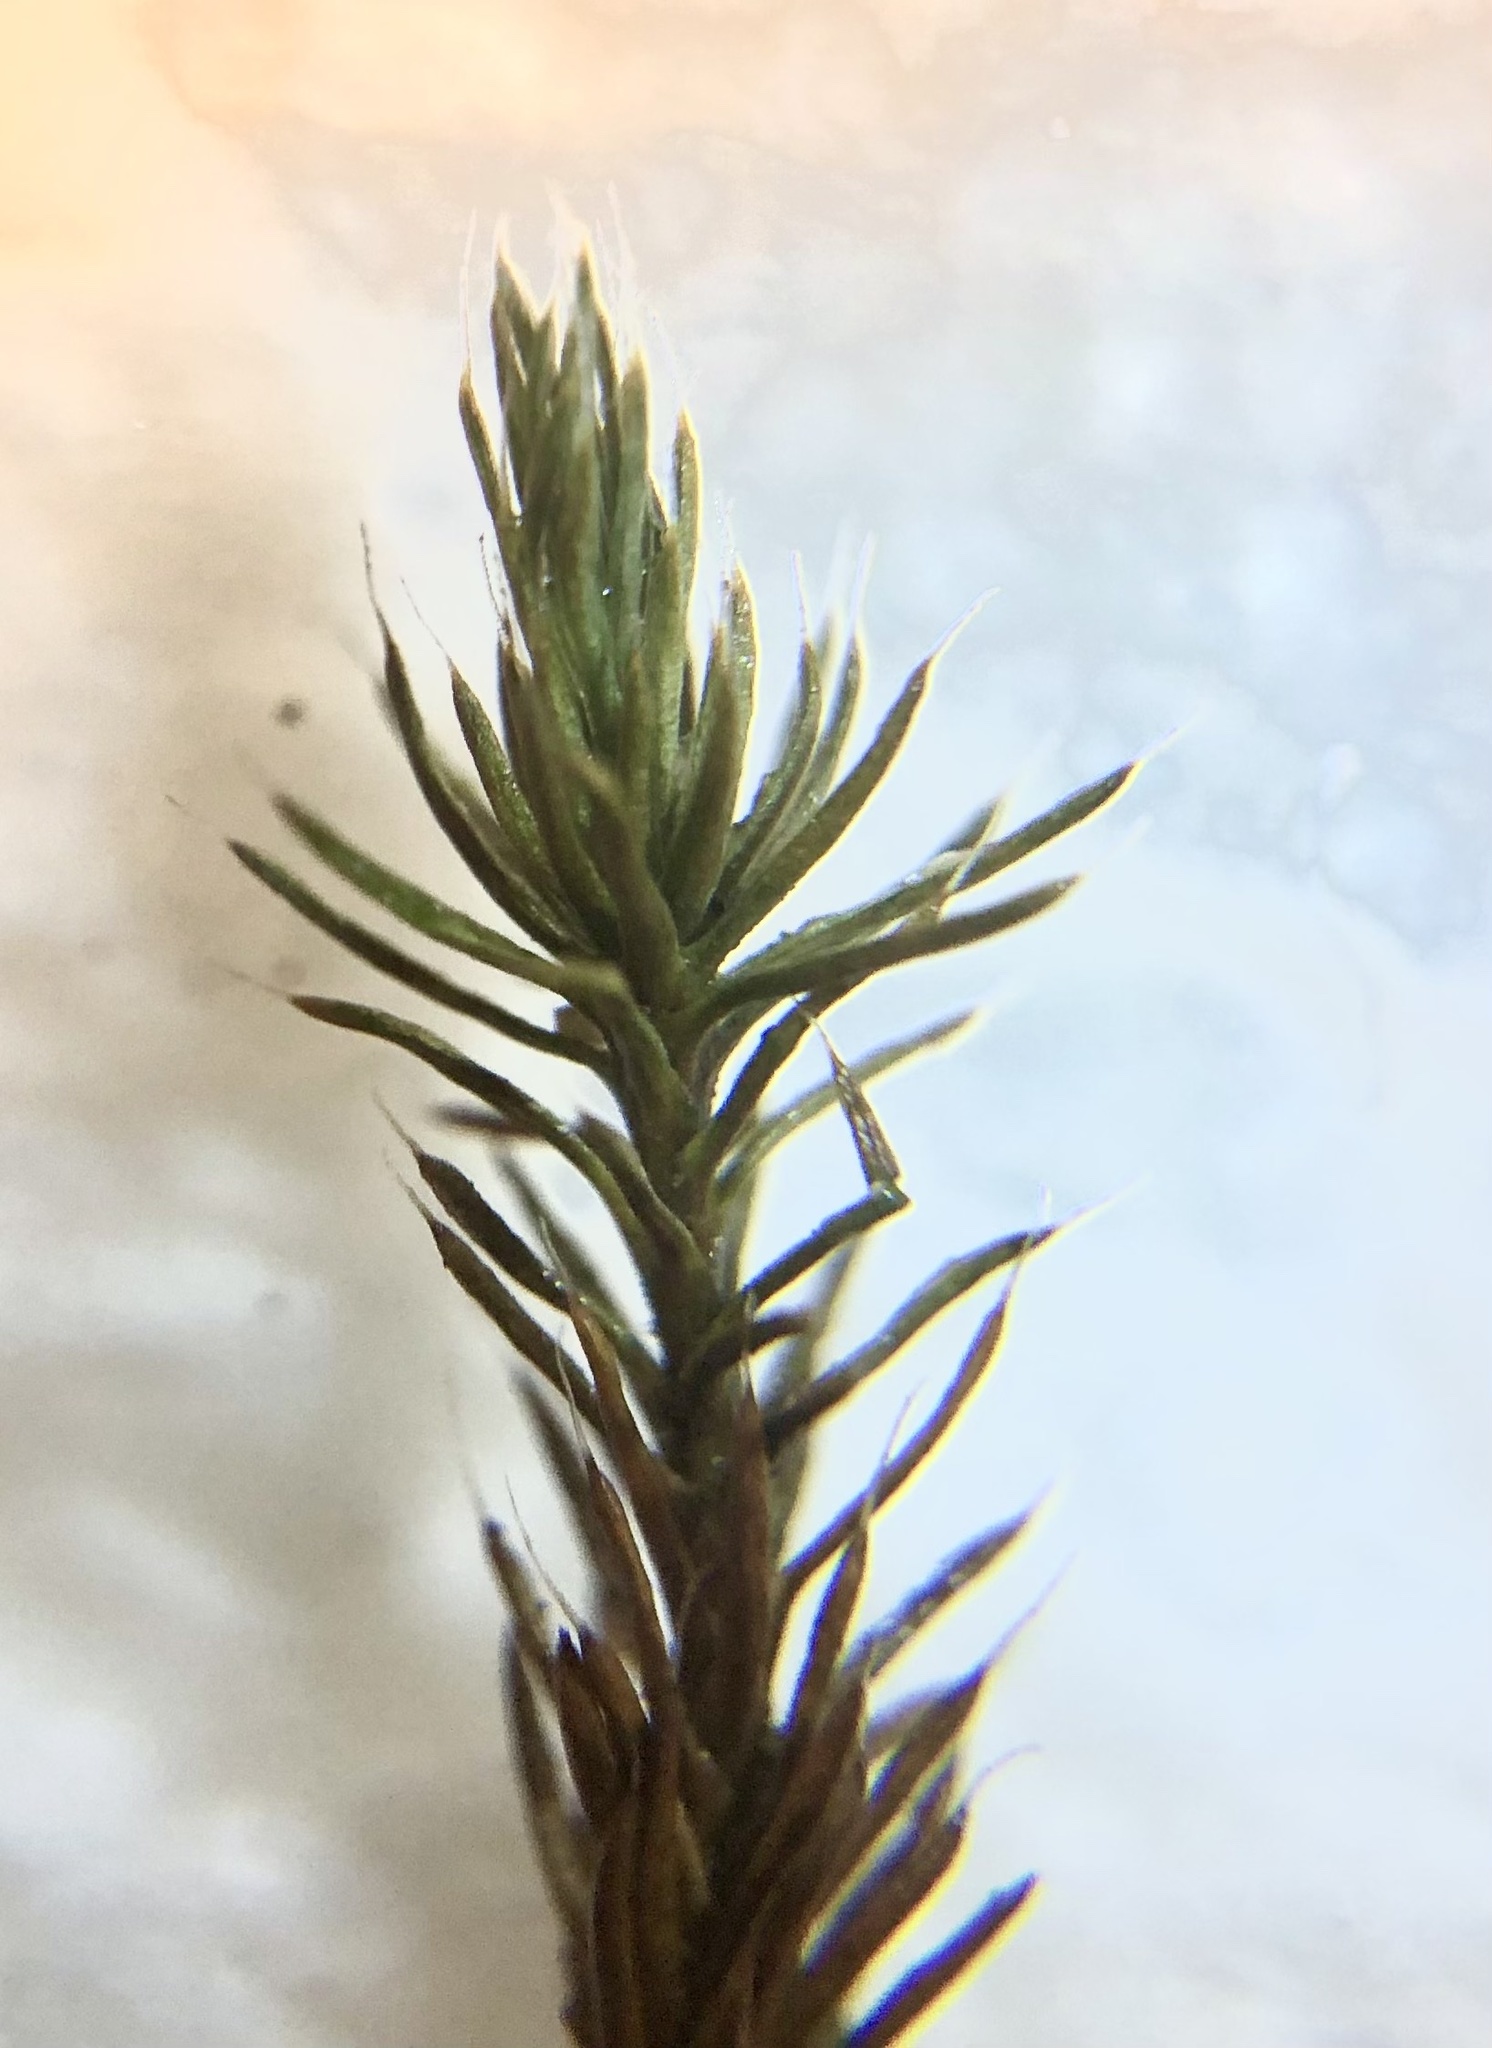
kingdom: Plantae
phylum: Bryophyta
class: Polytrichopsida
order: Polytrichales
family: Polytrichaceae
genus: Polytrichum
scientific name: Polytrichum piliferum
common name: Bristly haircap
